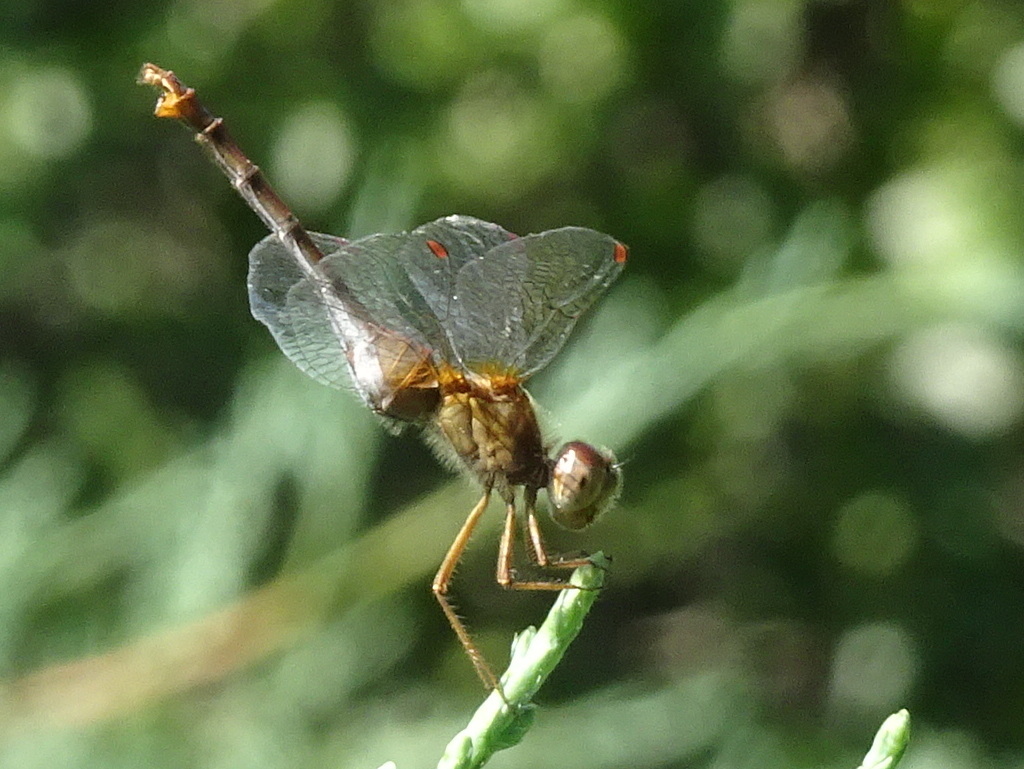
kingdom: Animalia
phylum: Arthropoda
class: Insecta
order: Odonata
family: Libellulidae
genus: Sympetrum
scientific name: Sympetrum vicinum
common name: Autumn meadowhawk
